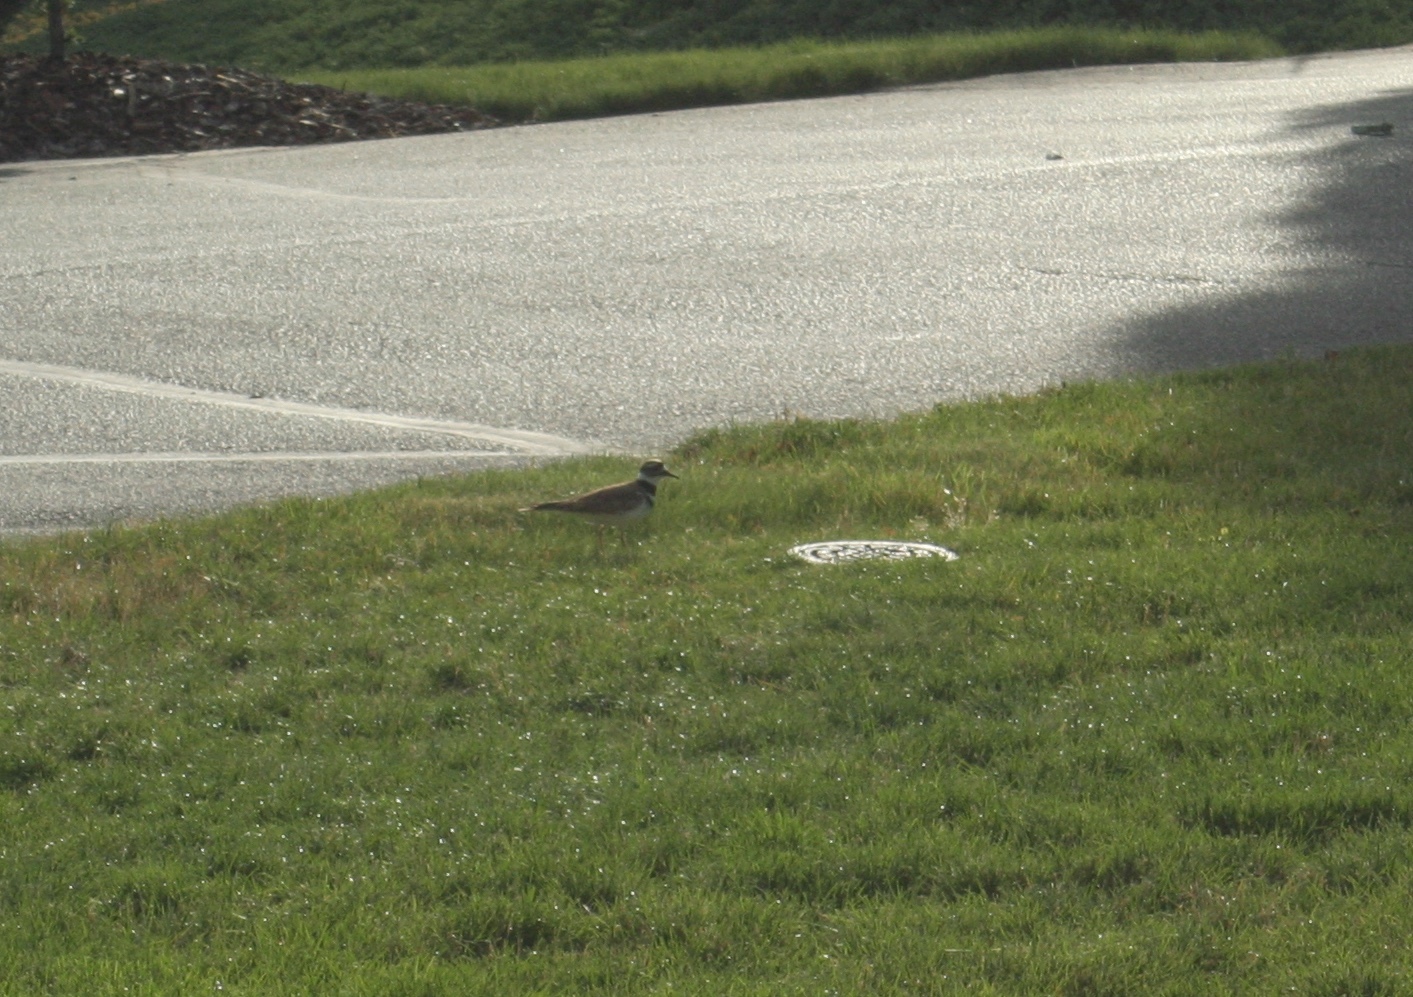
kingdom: Animalia
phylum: Chordata
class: Aves
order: Charadriiformes
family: Charadriidae
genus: Charadrius
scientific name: Charadrius vociferus
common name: Killdeer
